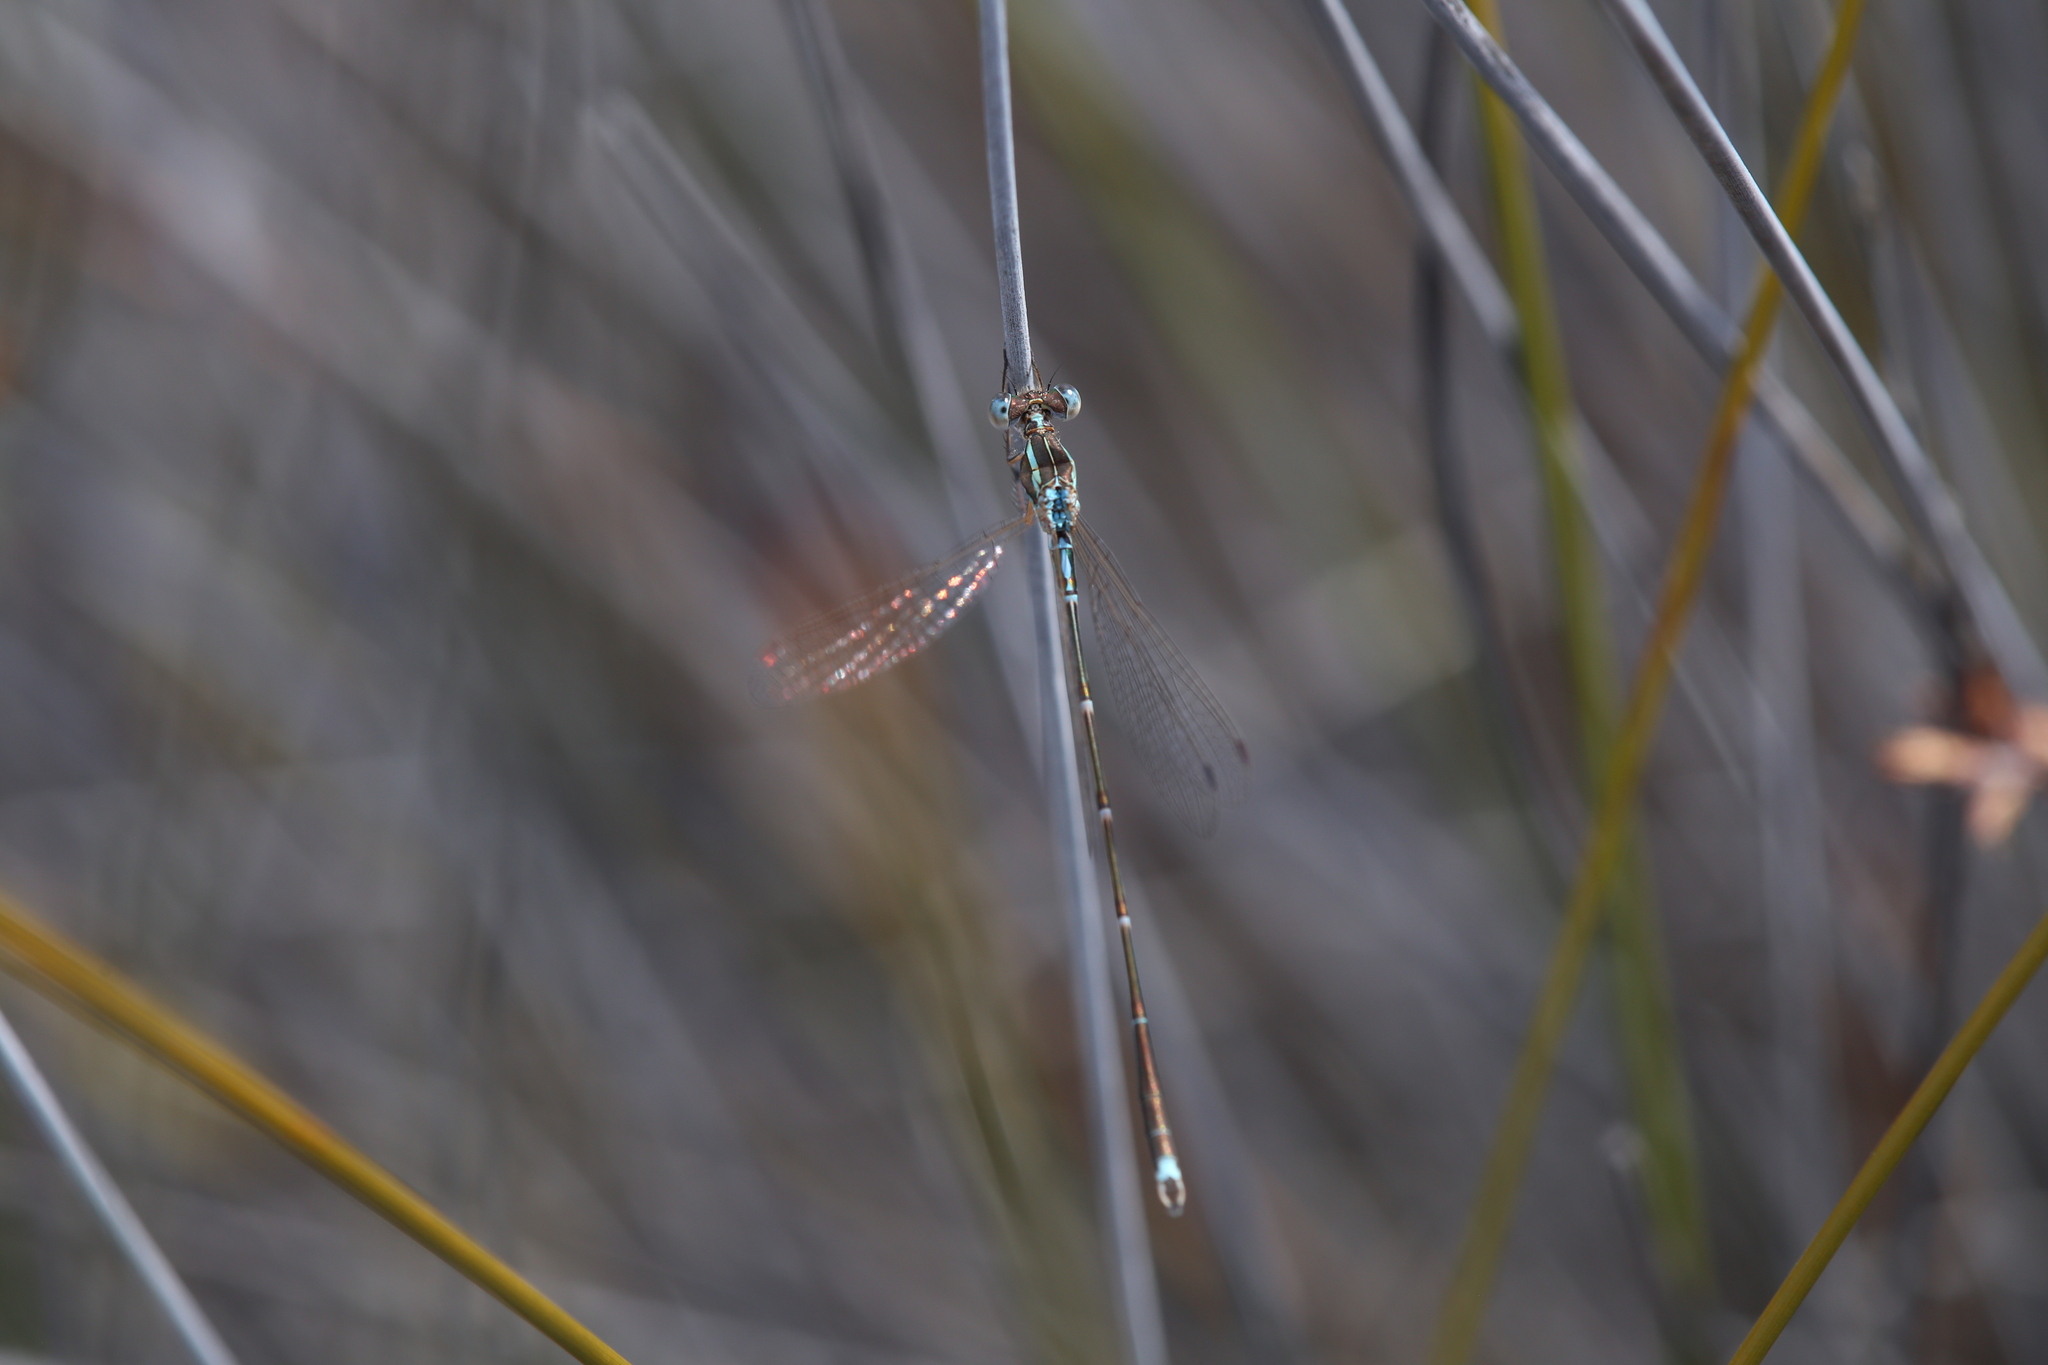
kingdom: Animalia
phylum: Arthropoda
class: Insecta
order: Odonata
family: Lestidae
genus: Austrolestes
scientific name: Austrolestes analis
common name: Slender ringtail
